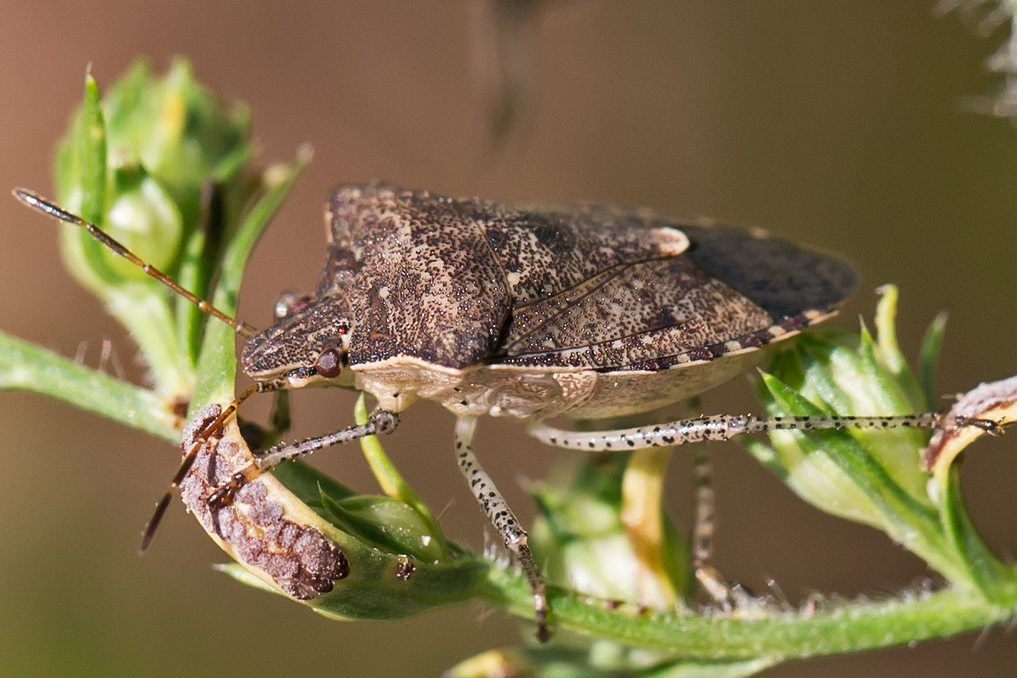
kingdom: Animalia
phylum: Arthropoda
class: Insecta
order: Hemiptera
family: Pentatomidae
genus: Euschistus
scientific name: Euschistus tristigmus
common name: Dusky stink bug
